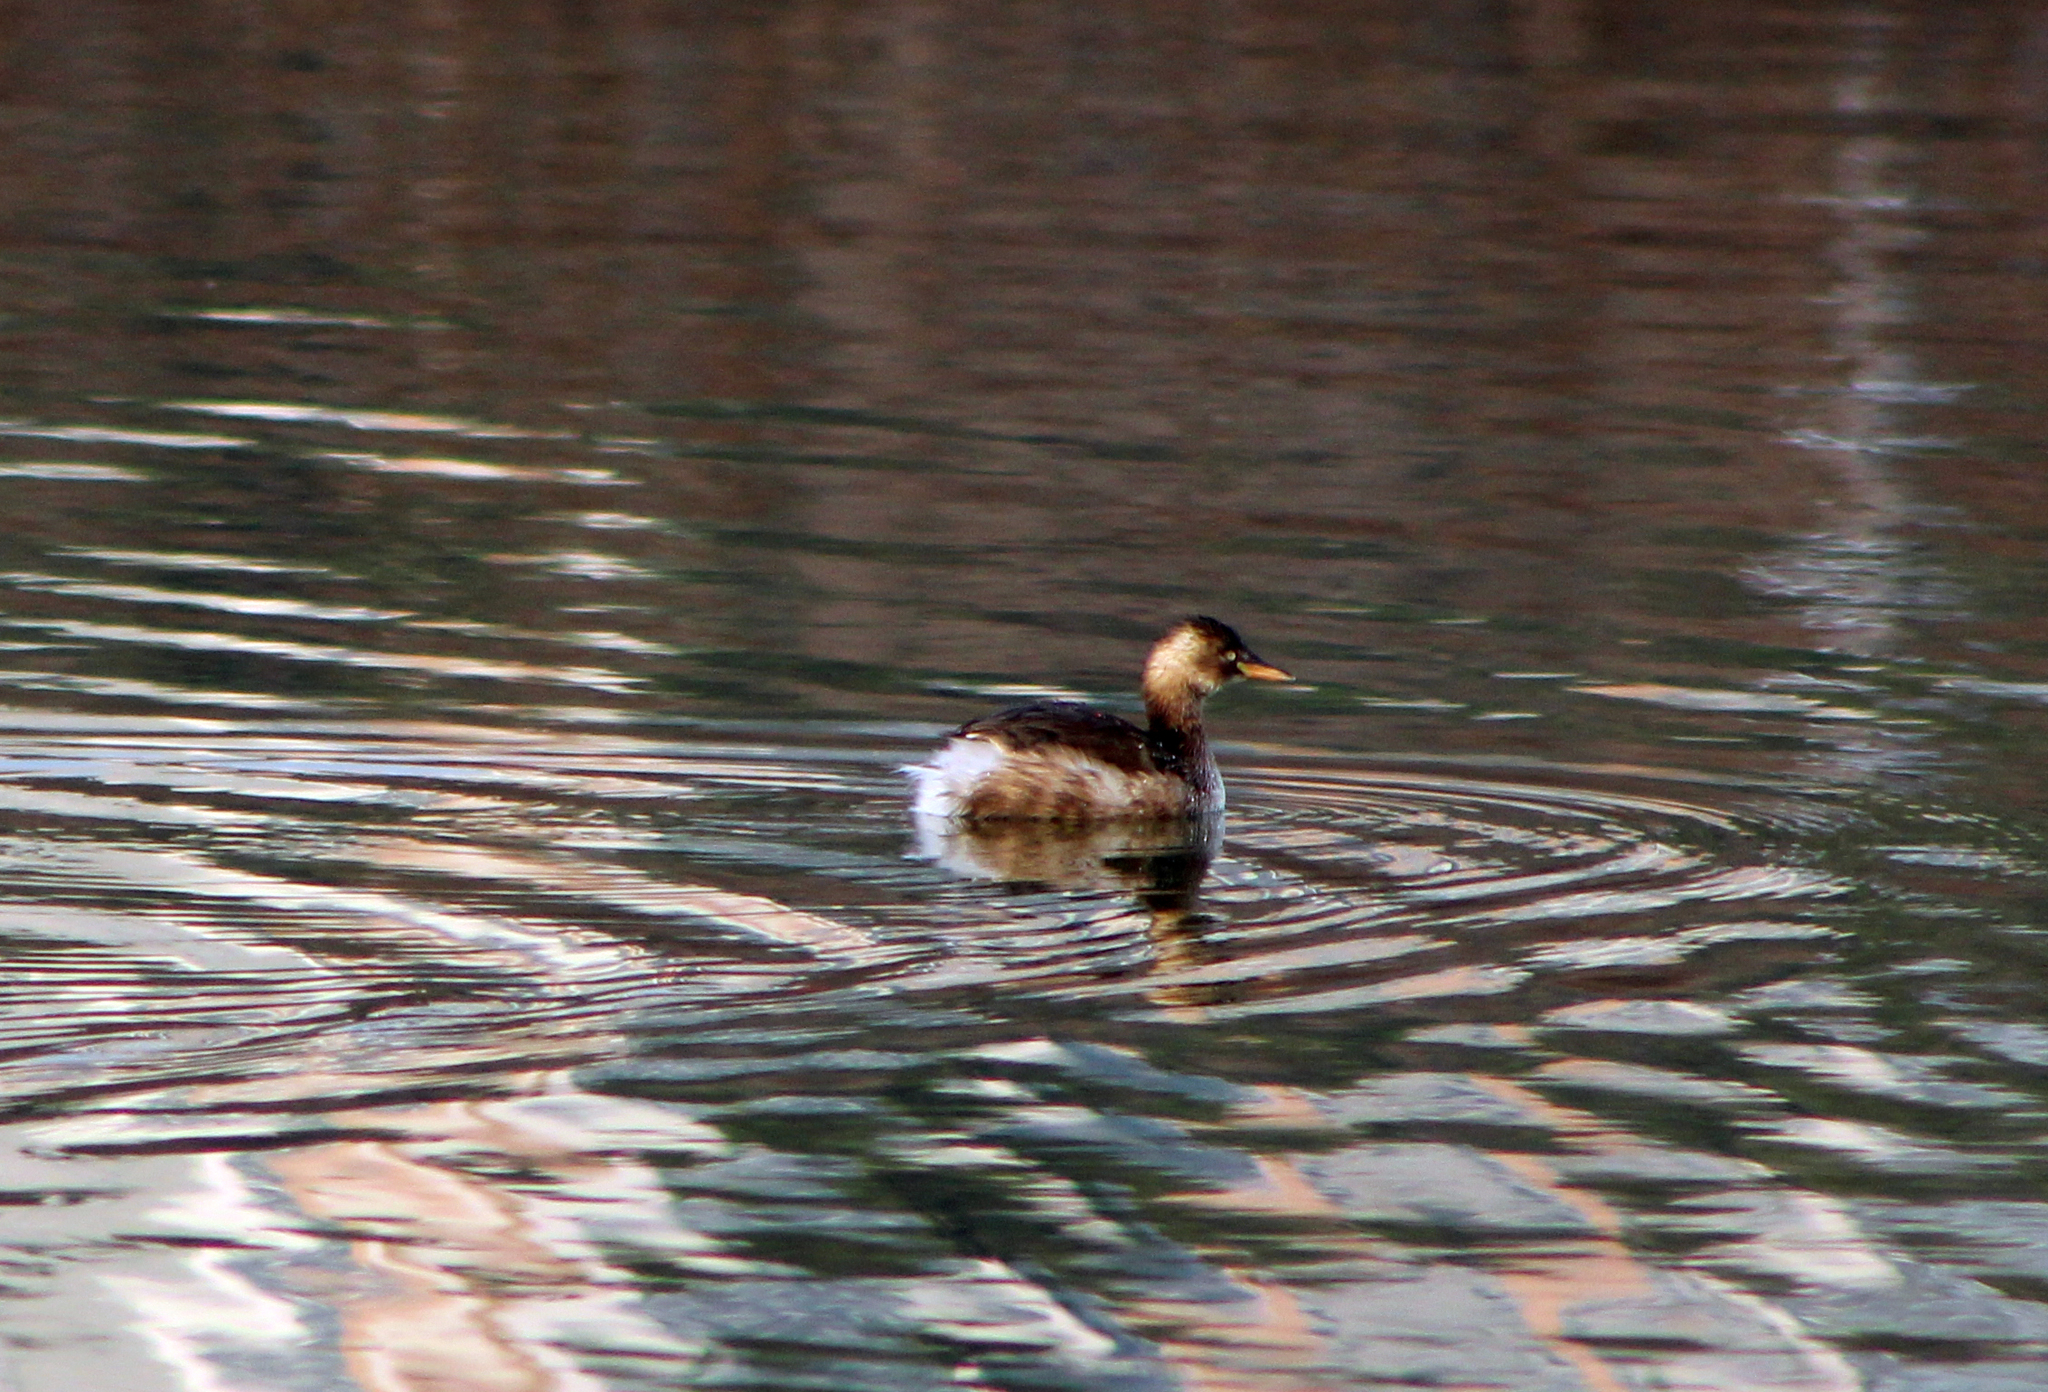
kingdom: Animalia
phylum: Chordata
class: Aves
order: Podicipediformes
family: Podicipedidae
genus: Tachybaptus
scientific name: Tachybaptus ruficollis
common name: Little grebe
